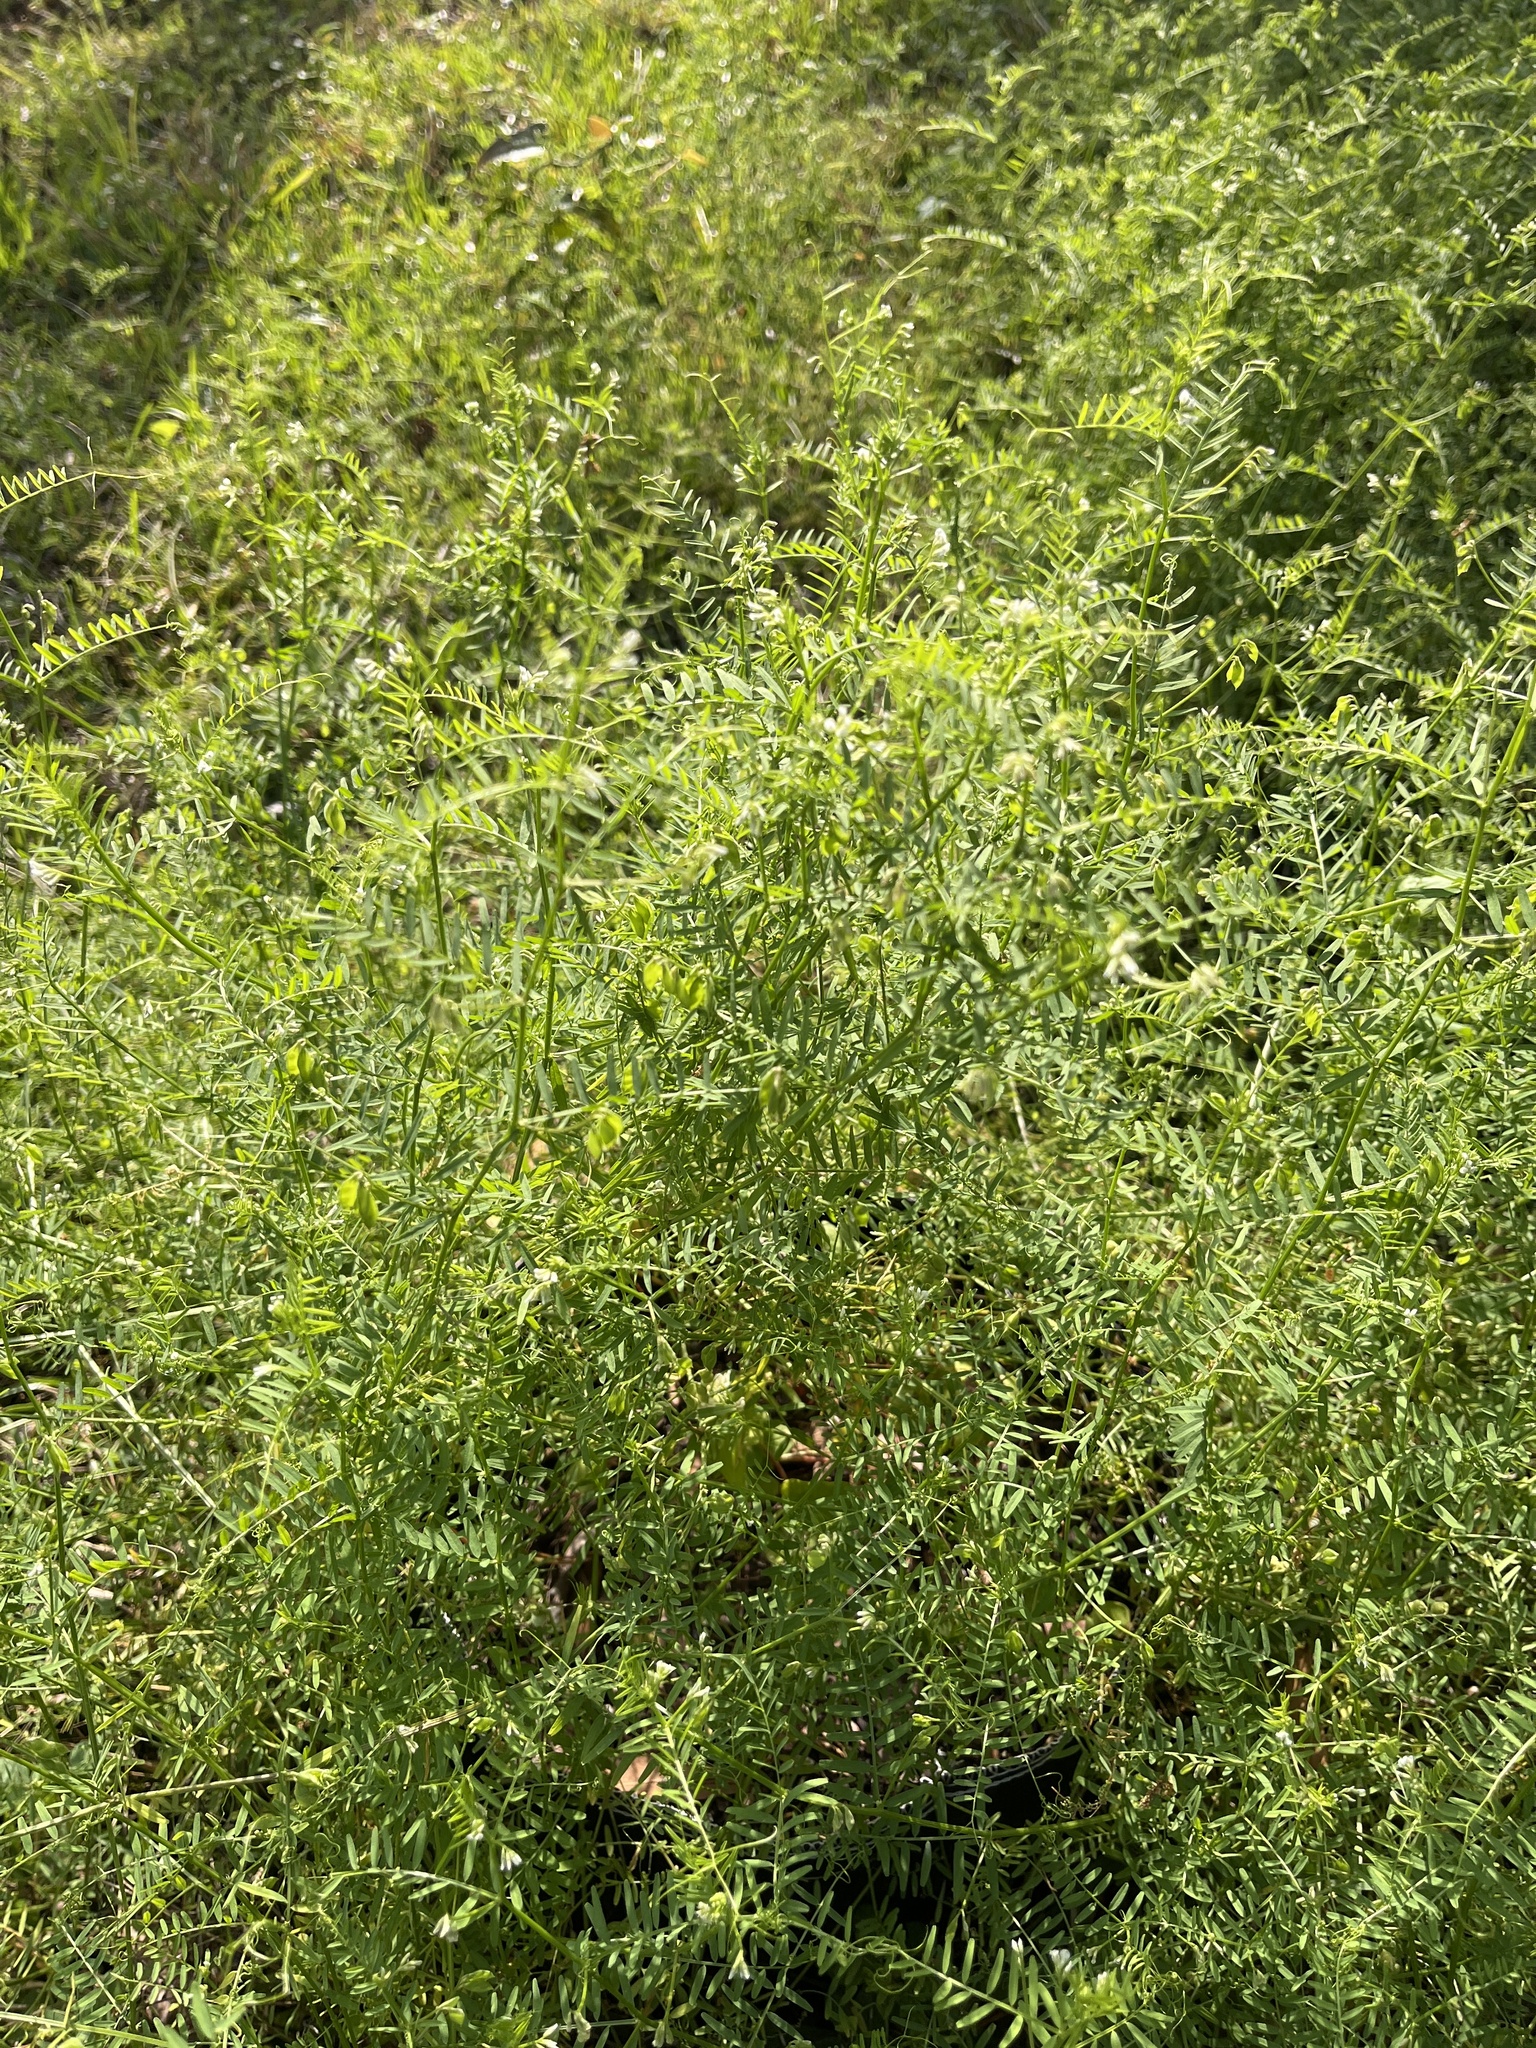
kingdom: Plantae
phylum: Tracheophyta
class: Magnoliopsida
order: Fabales
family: Fabaceae
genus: Vicia
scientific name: Vicia hirsuta
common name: Tiny vetch
